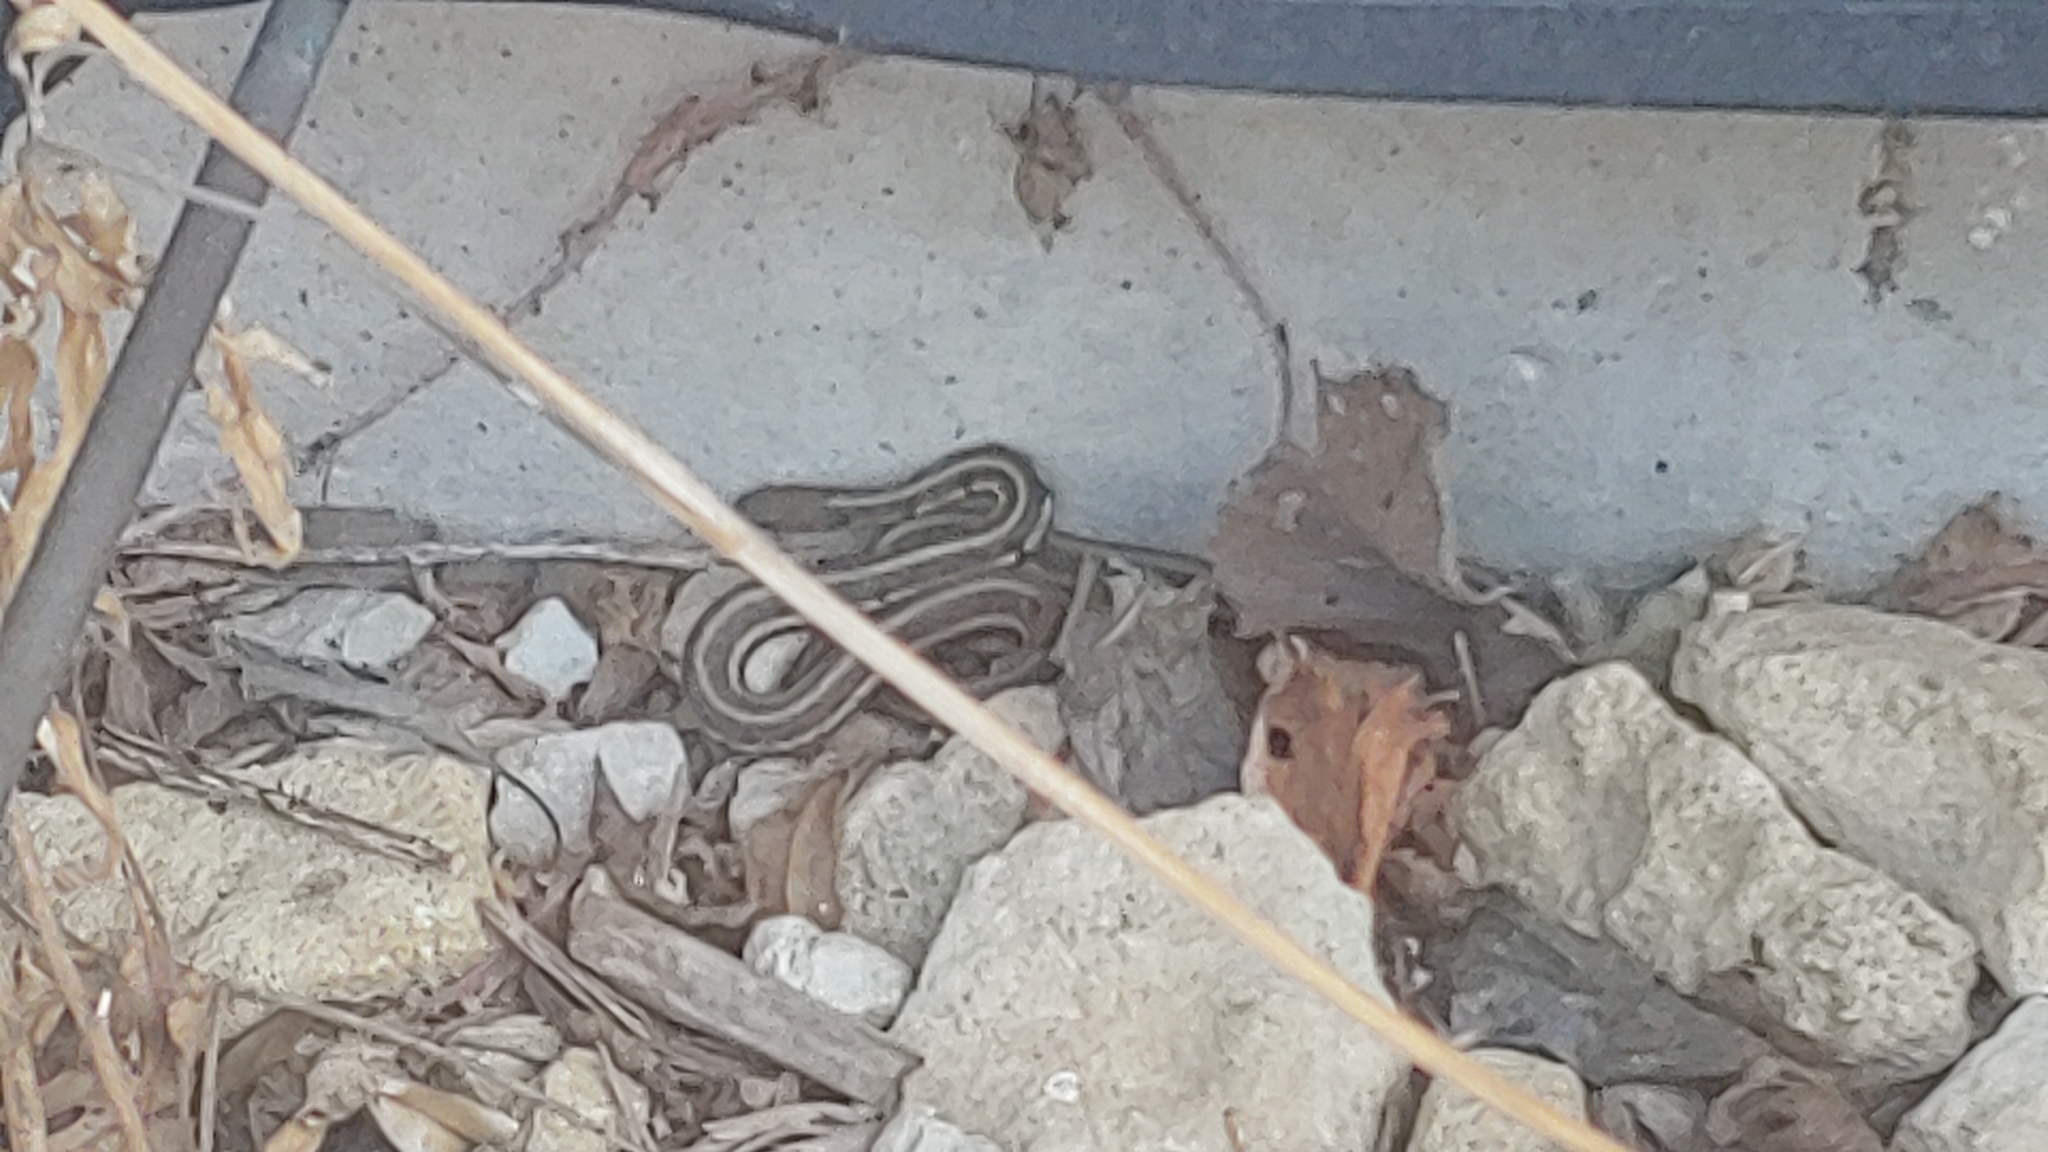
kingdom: Animalia
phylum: Chordata
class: Squamata
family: Colubridae
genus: Thamnophis
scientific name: Thamnophis sirtalis
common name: Common garter snake
